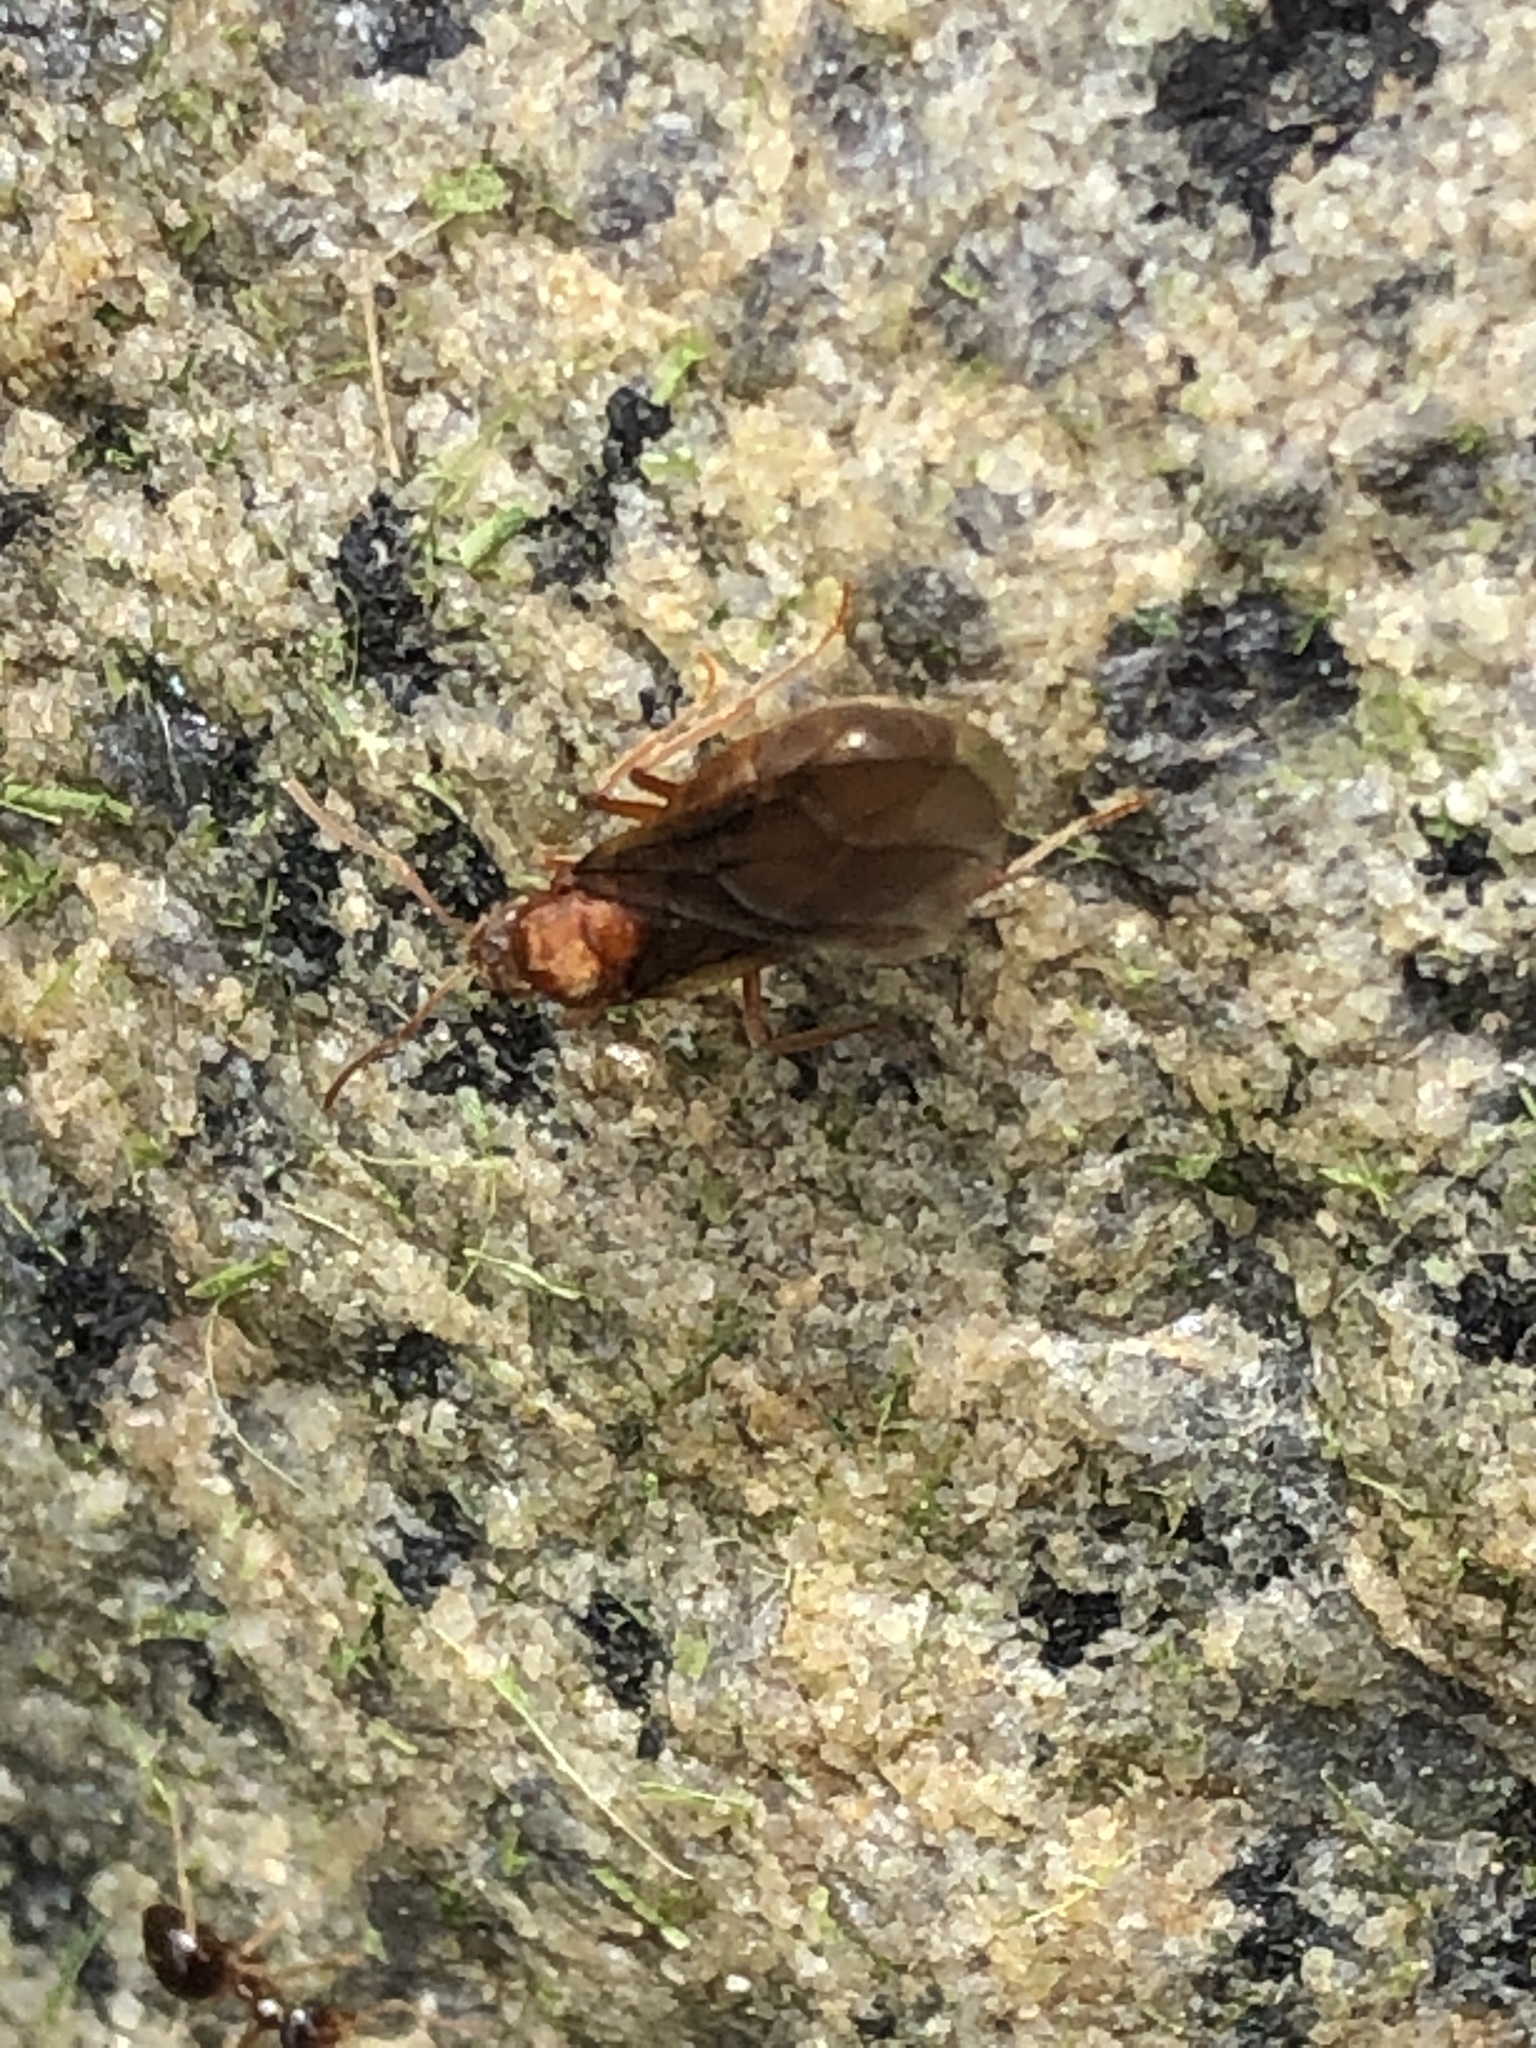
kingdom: Animalia
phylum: Arthropoda
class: Insecta
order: Hymenoptera
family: Formicidae
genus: Prenolepis
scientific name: Prenolepis imparis
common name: Small honey ant
